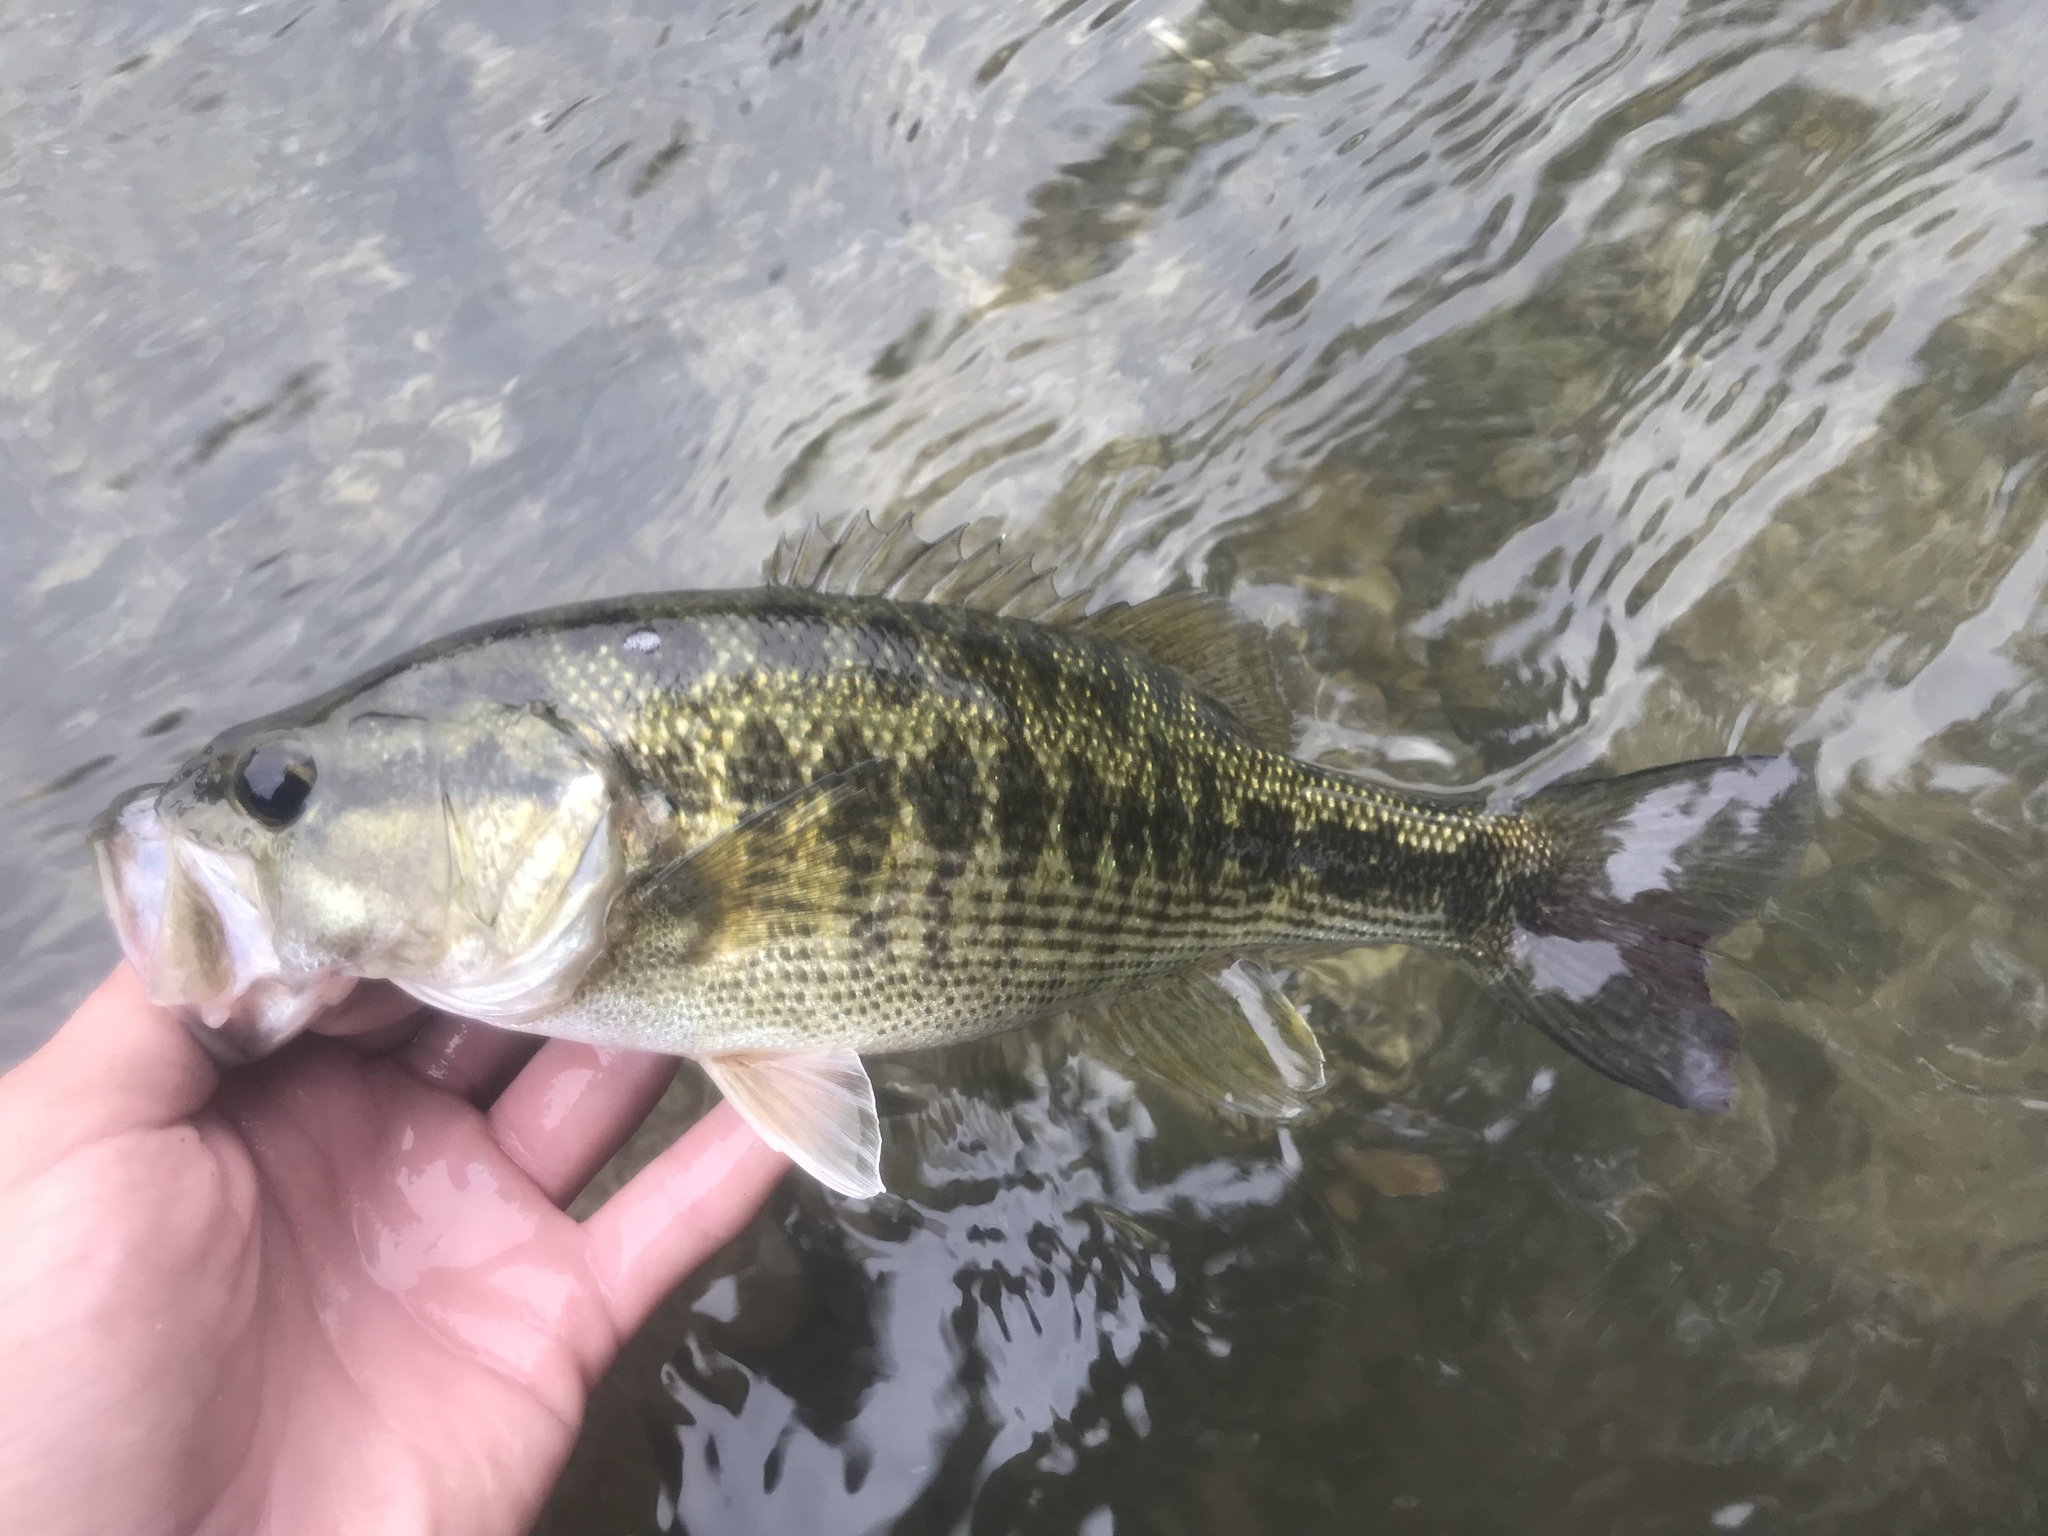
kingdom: Animalia
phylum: Chordata
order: Perciformes
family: Centrarchidae
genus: Micropterus
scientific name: Micropterus treculii
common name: Guadalupe bass
